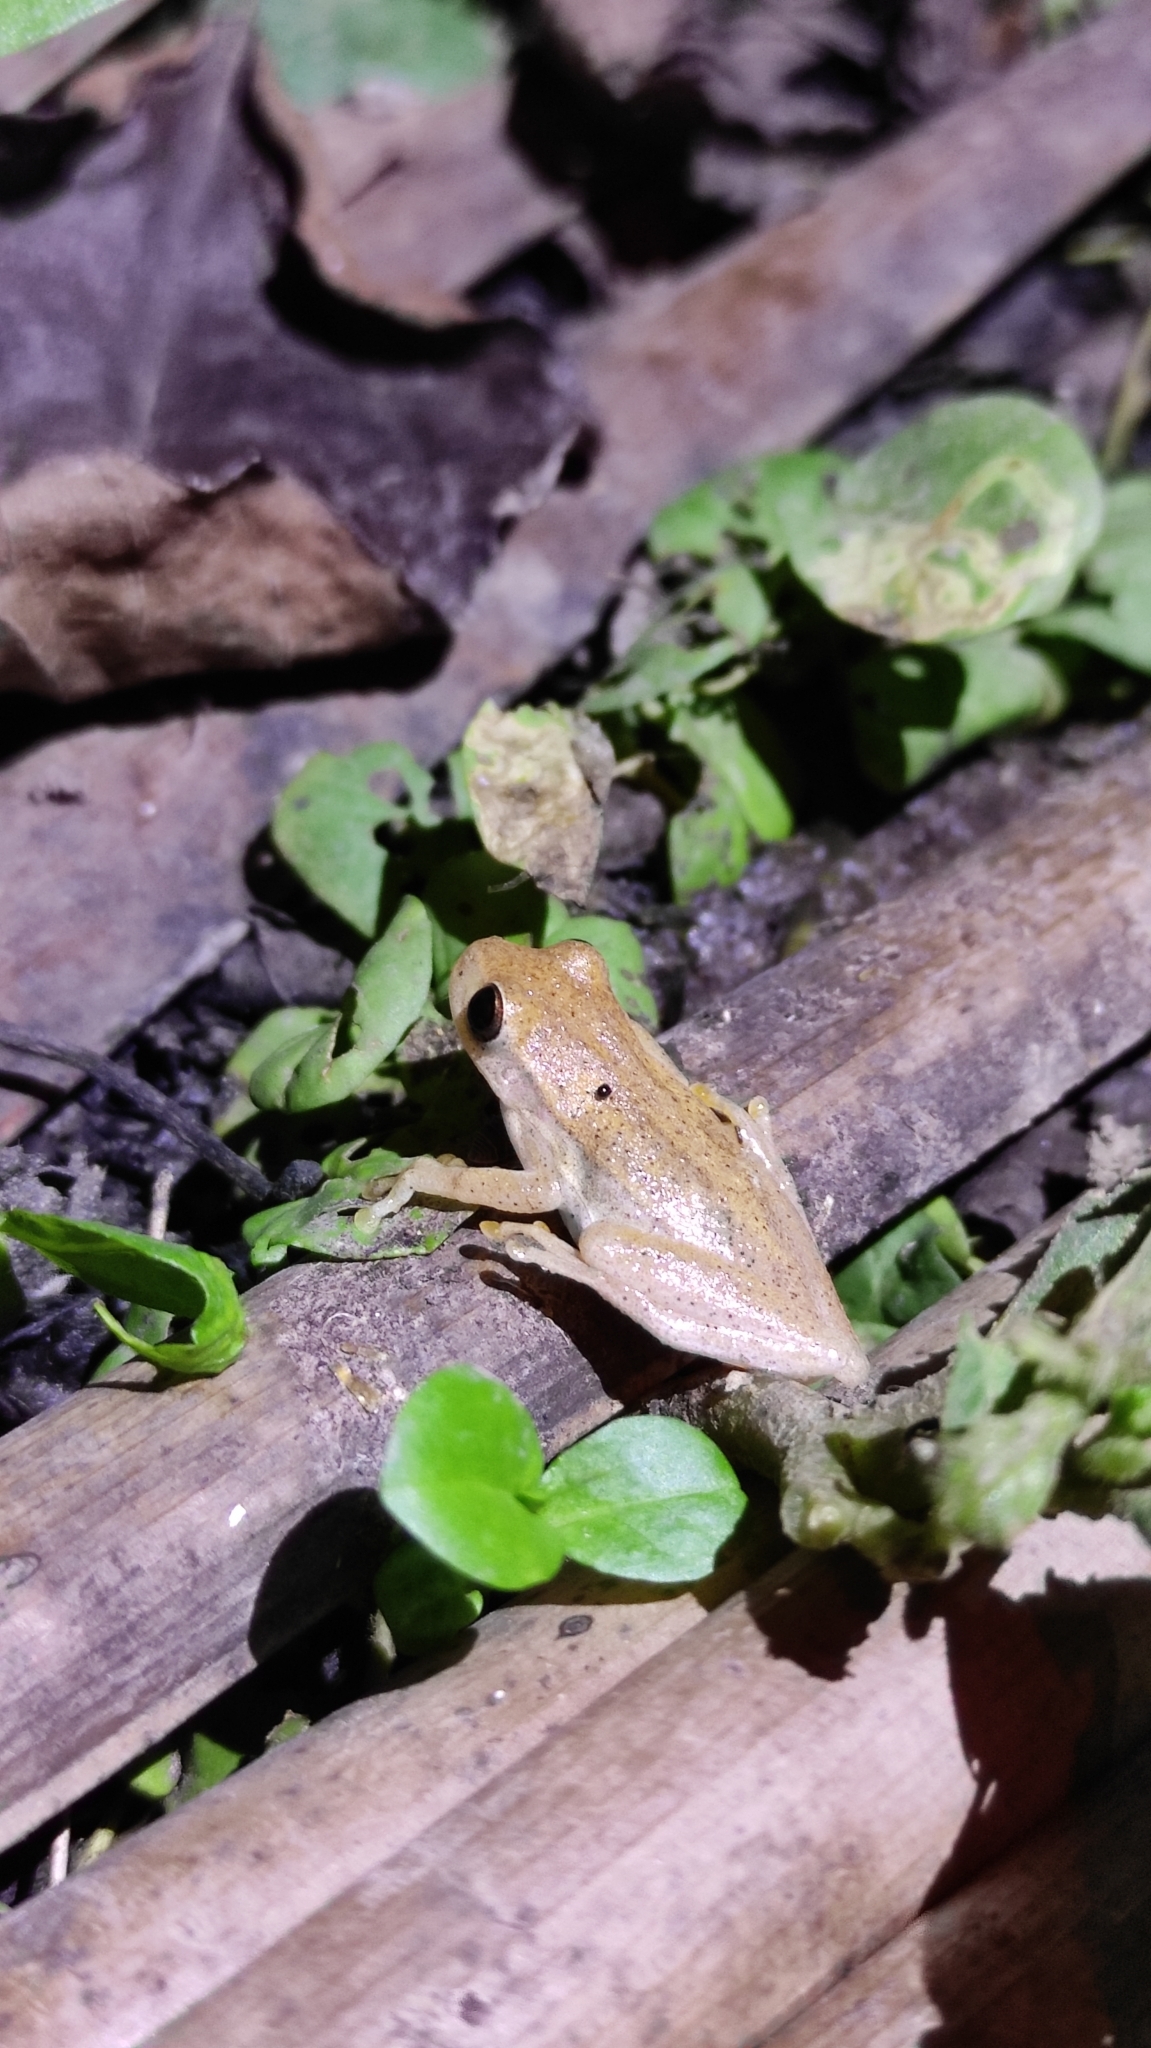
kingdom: Animalia
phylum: Chordata
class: Amphibia
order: Anura
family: Hylidae
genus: Dendropsophus
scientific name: Dendropsophus microcephalus
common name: Small-headed treefrog
